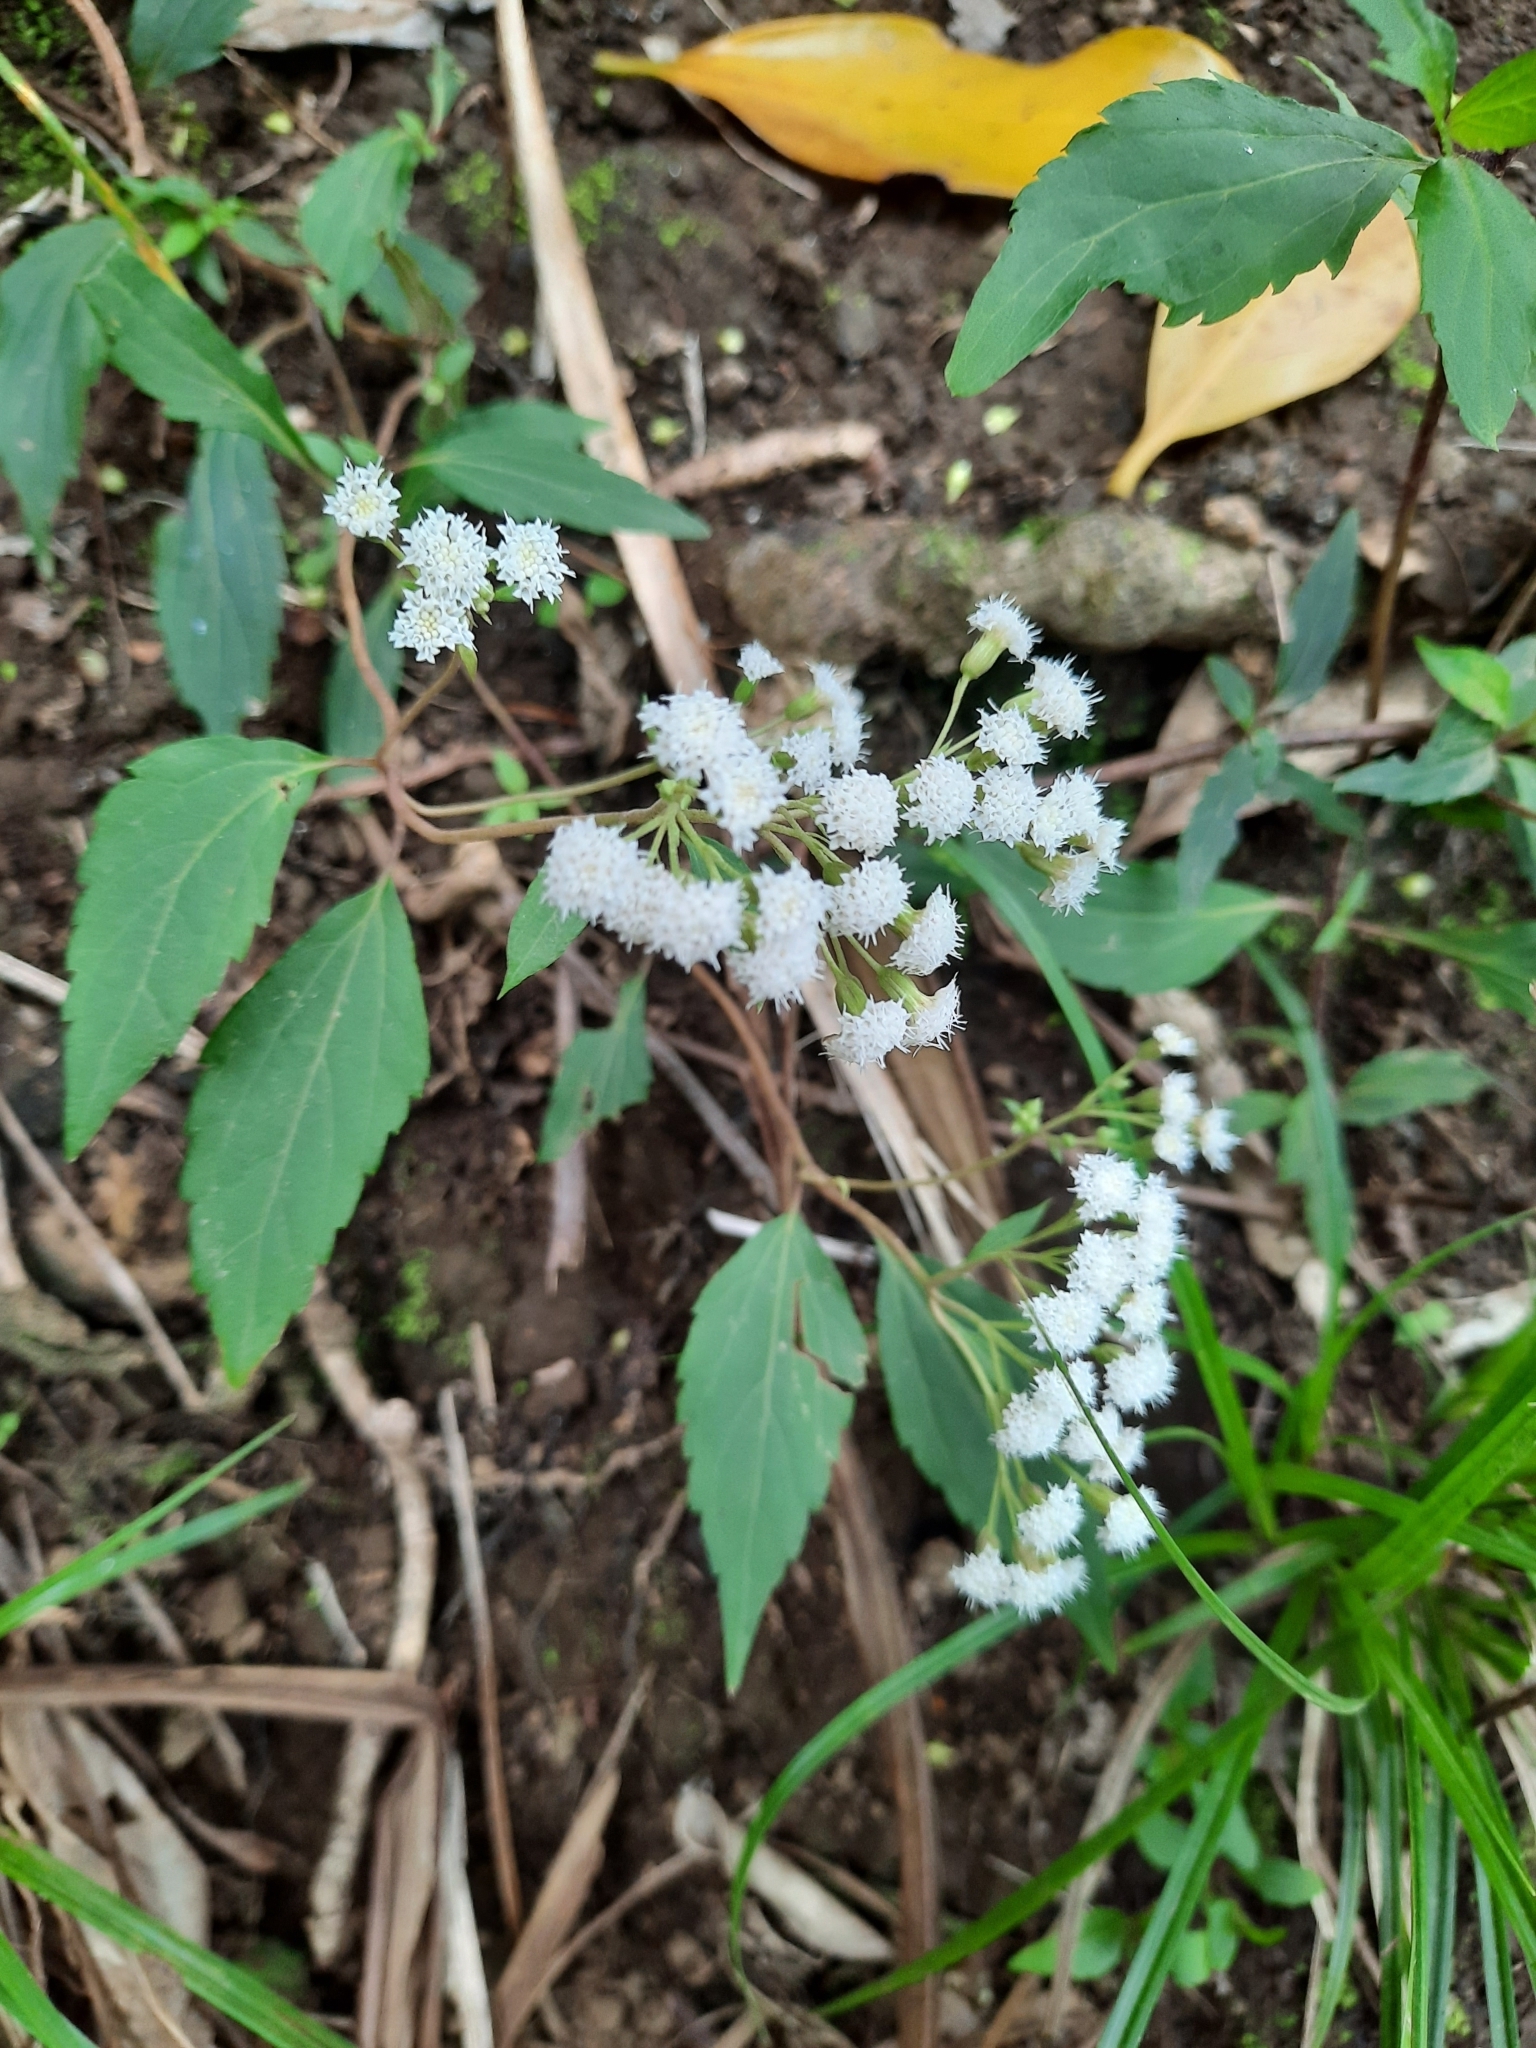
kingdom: Plantae
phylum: Tracheophyta
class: Magnoliopsida
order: Asterales
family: Asteraceae
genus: Ageratina
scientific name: Ageratina riparia
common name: Creeping croftonweed
